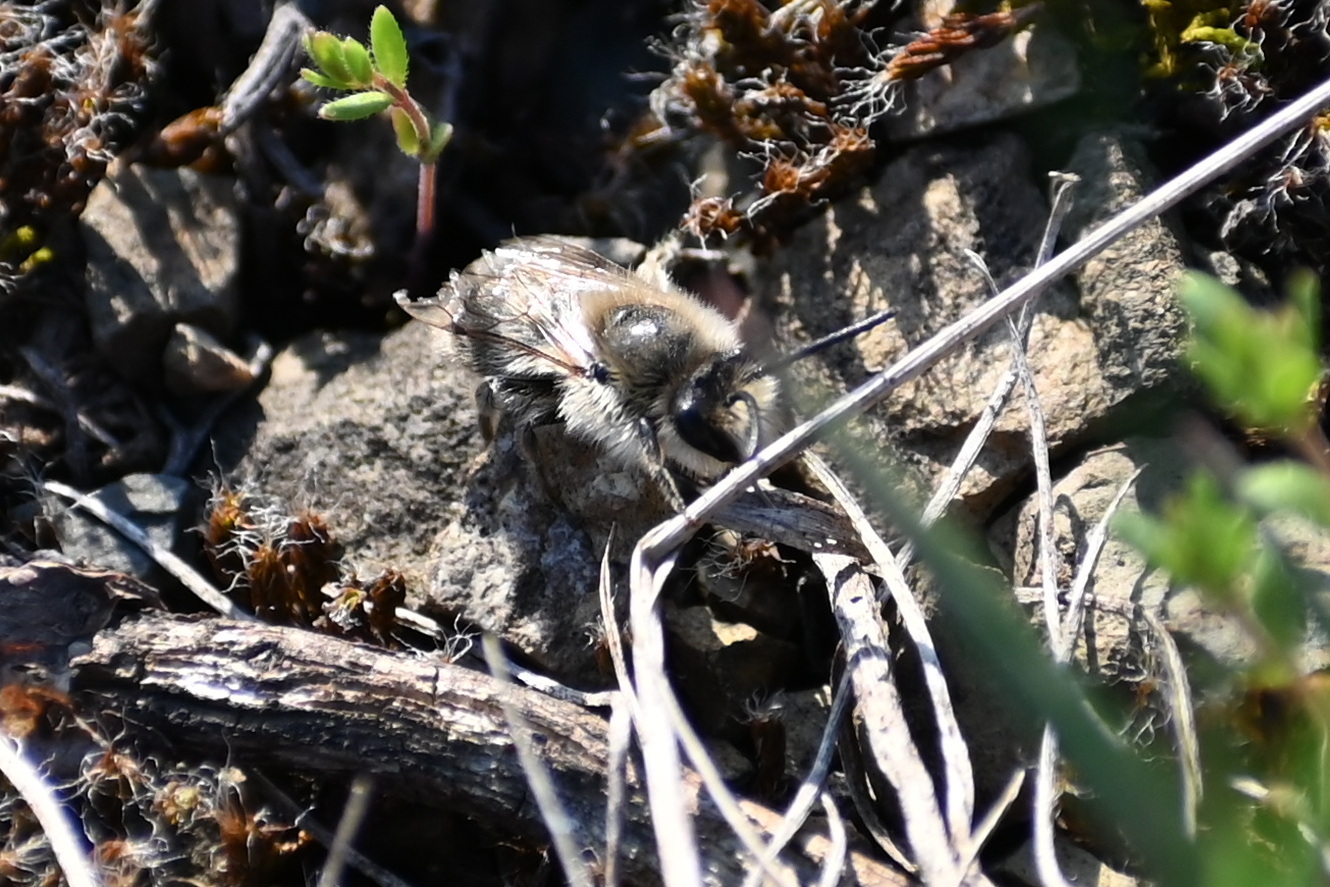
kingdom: Animalia
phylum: Arthropoda
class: Insecta
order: Hymenoptera
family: Colletidae
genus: Colletes
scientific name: Colletes cunicularius
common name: Early colletes
